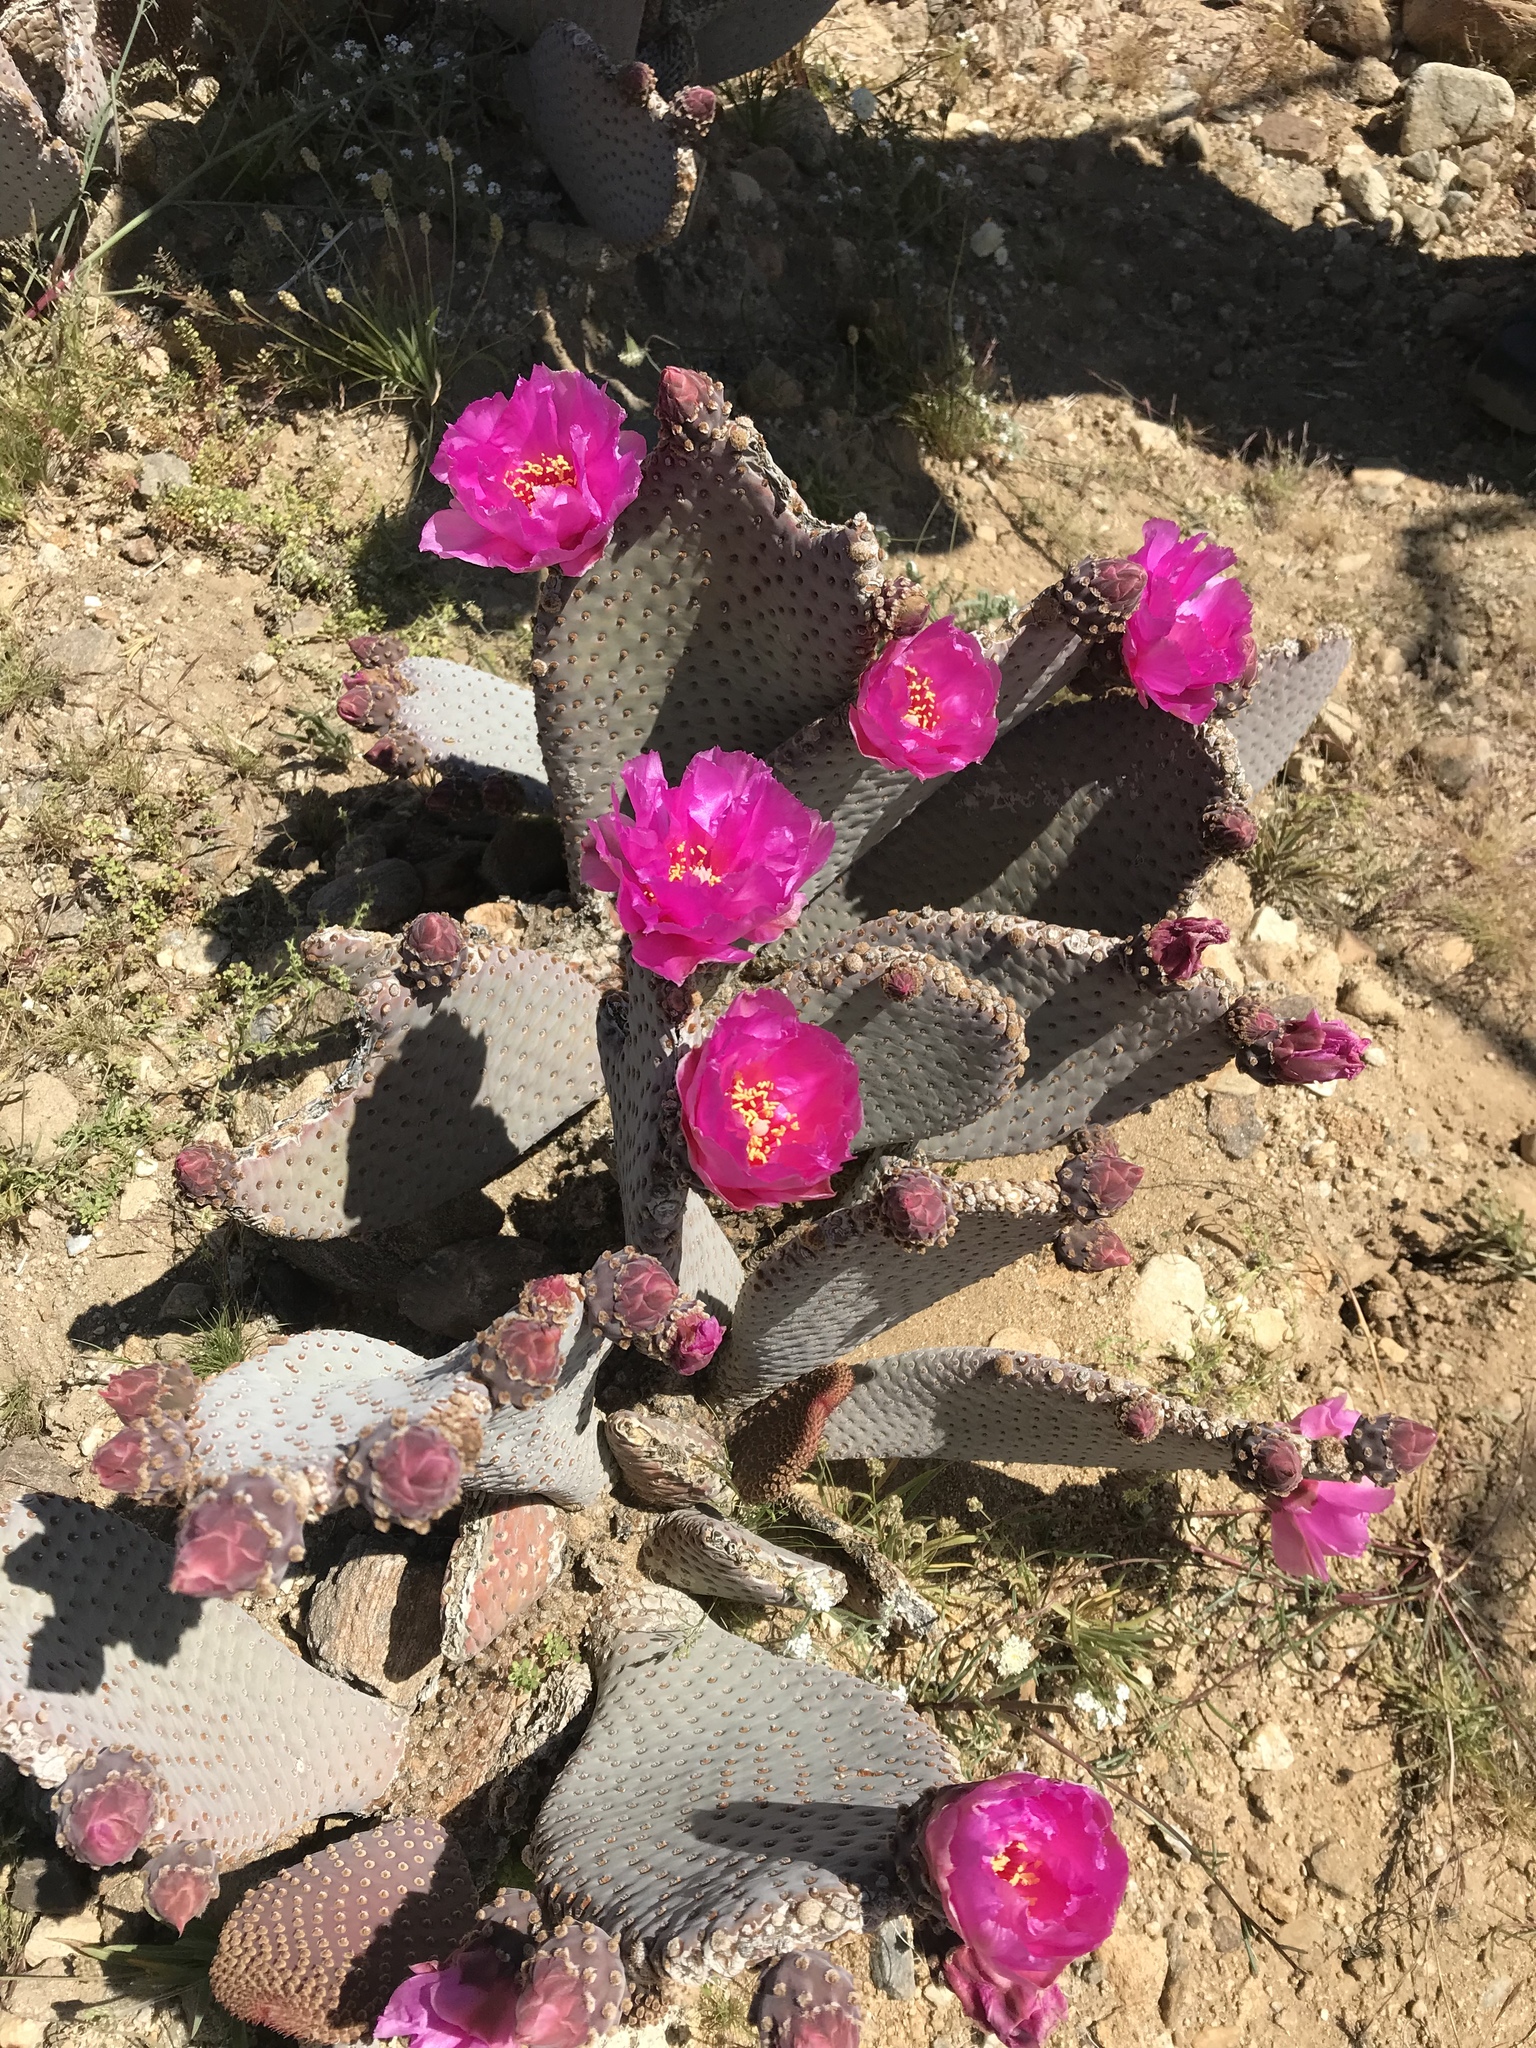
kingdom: Plantae
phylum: Tracheophyta
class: Magnoliopsida
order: Caryophyllales
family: Cactaceae
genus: Opuntia
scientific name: Opuntia basilaris
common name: Beavertail prickly-pear
